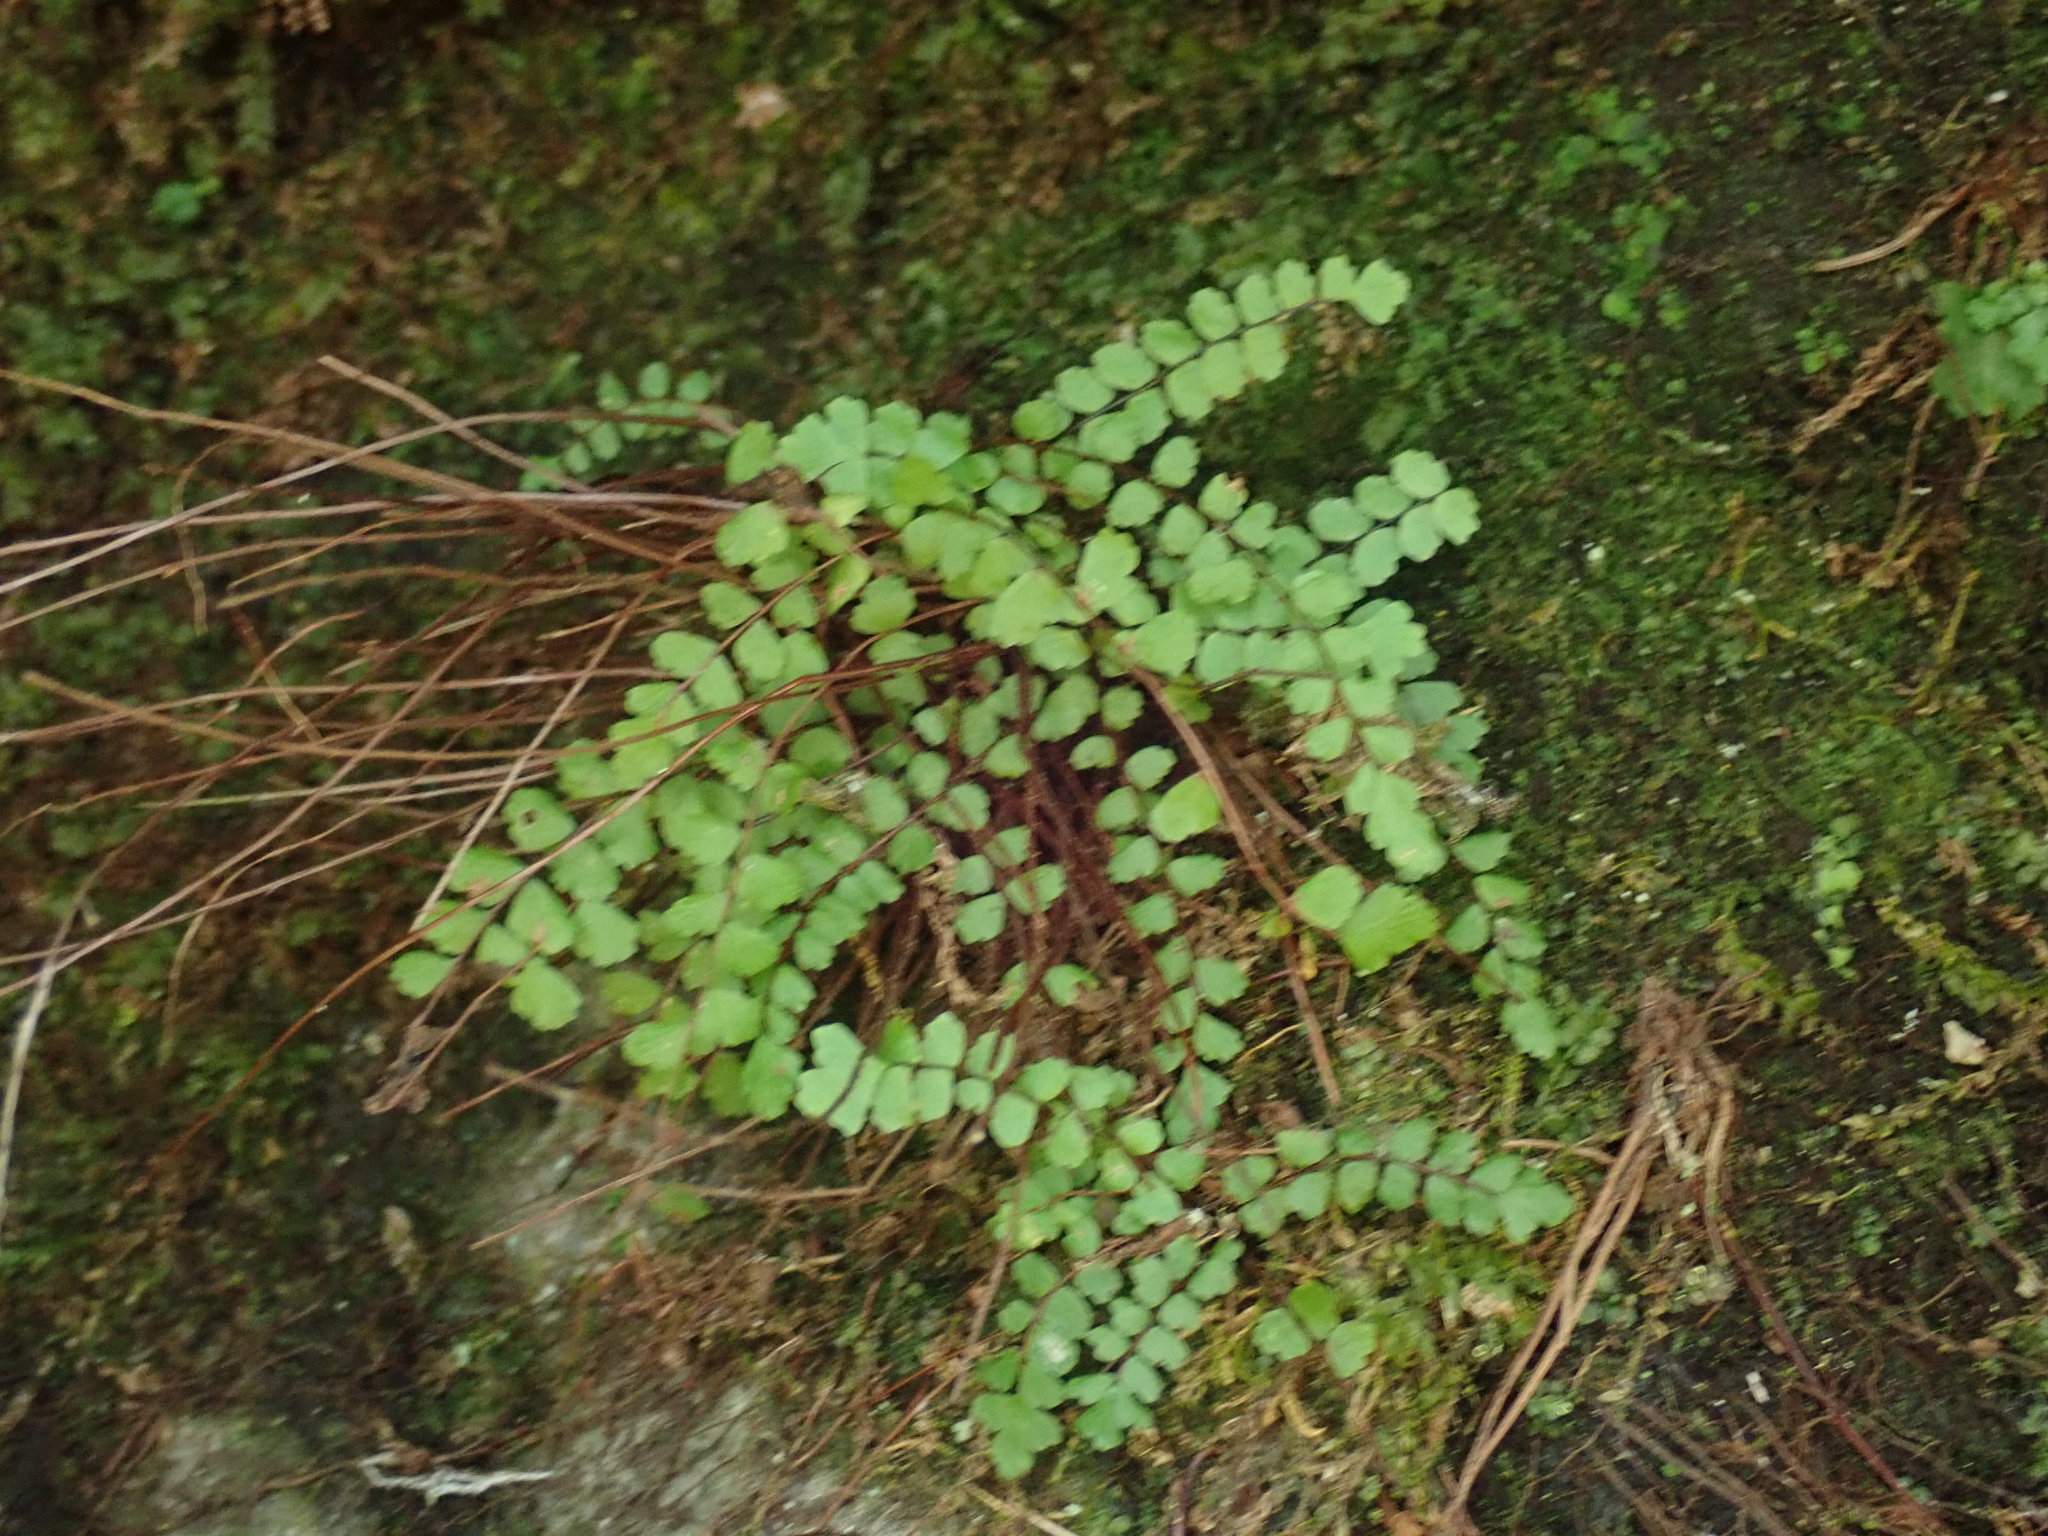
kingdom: Plantae
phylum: Tracheophyta
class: Polypodiopsida
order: Polypodiales
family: Aspleniaceae
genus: Asplenium
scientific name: Asplenium trichomanes
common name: Maidenhair spleenwort
